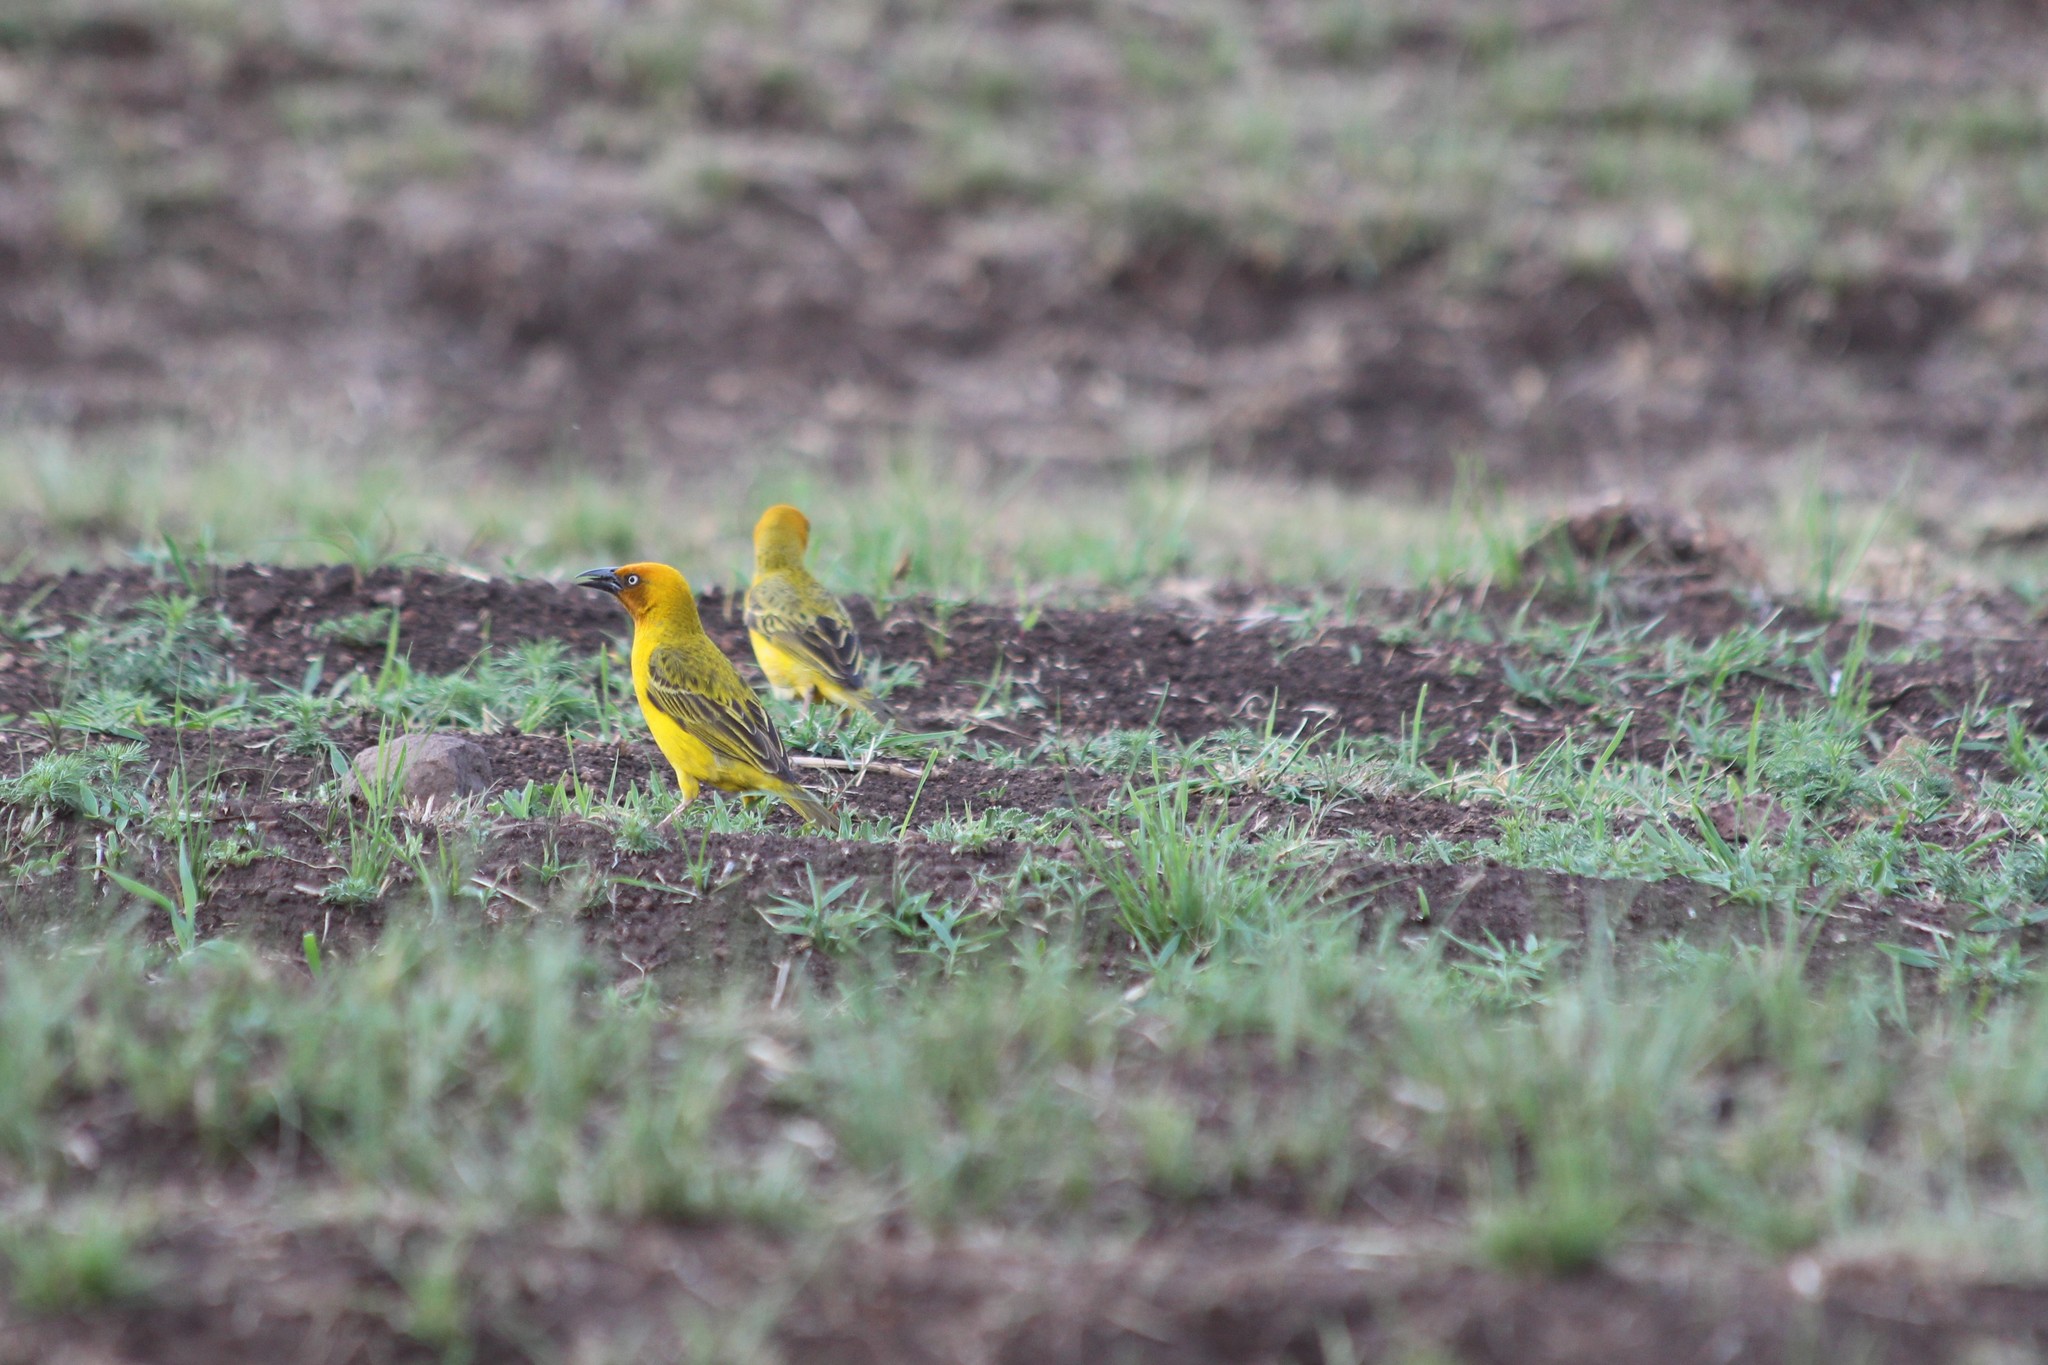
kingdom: Animalia
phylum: Chordata
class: Aves
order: Passeriformes
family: Ploceidae
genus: Ploceus
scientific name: Ploceus capensis
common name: Cape weaver
